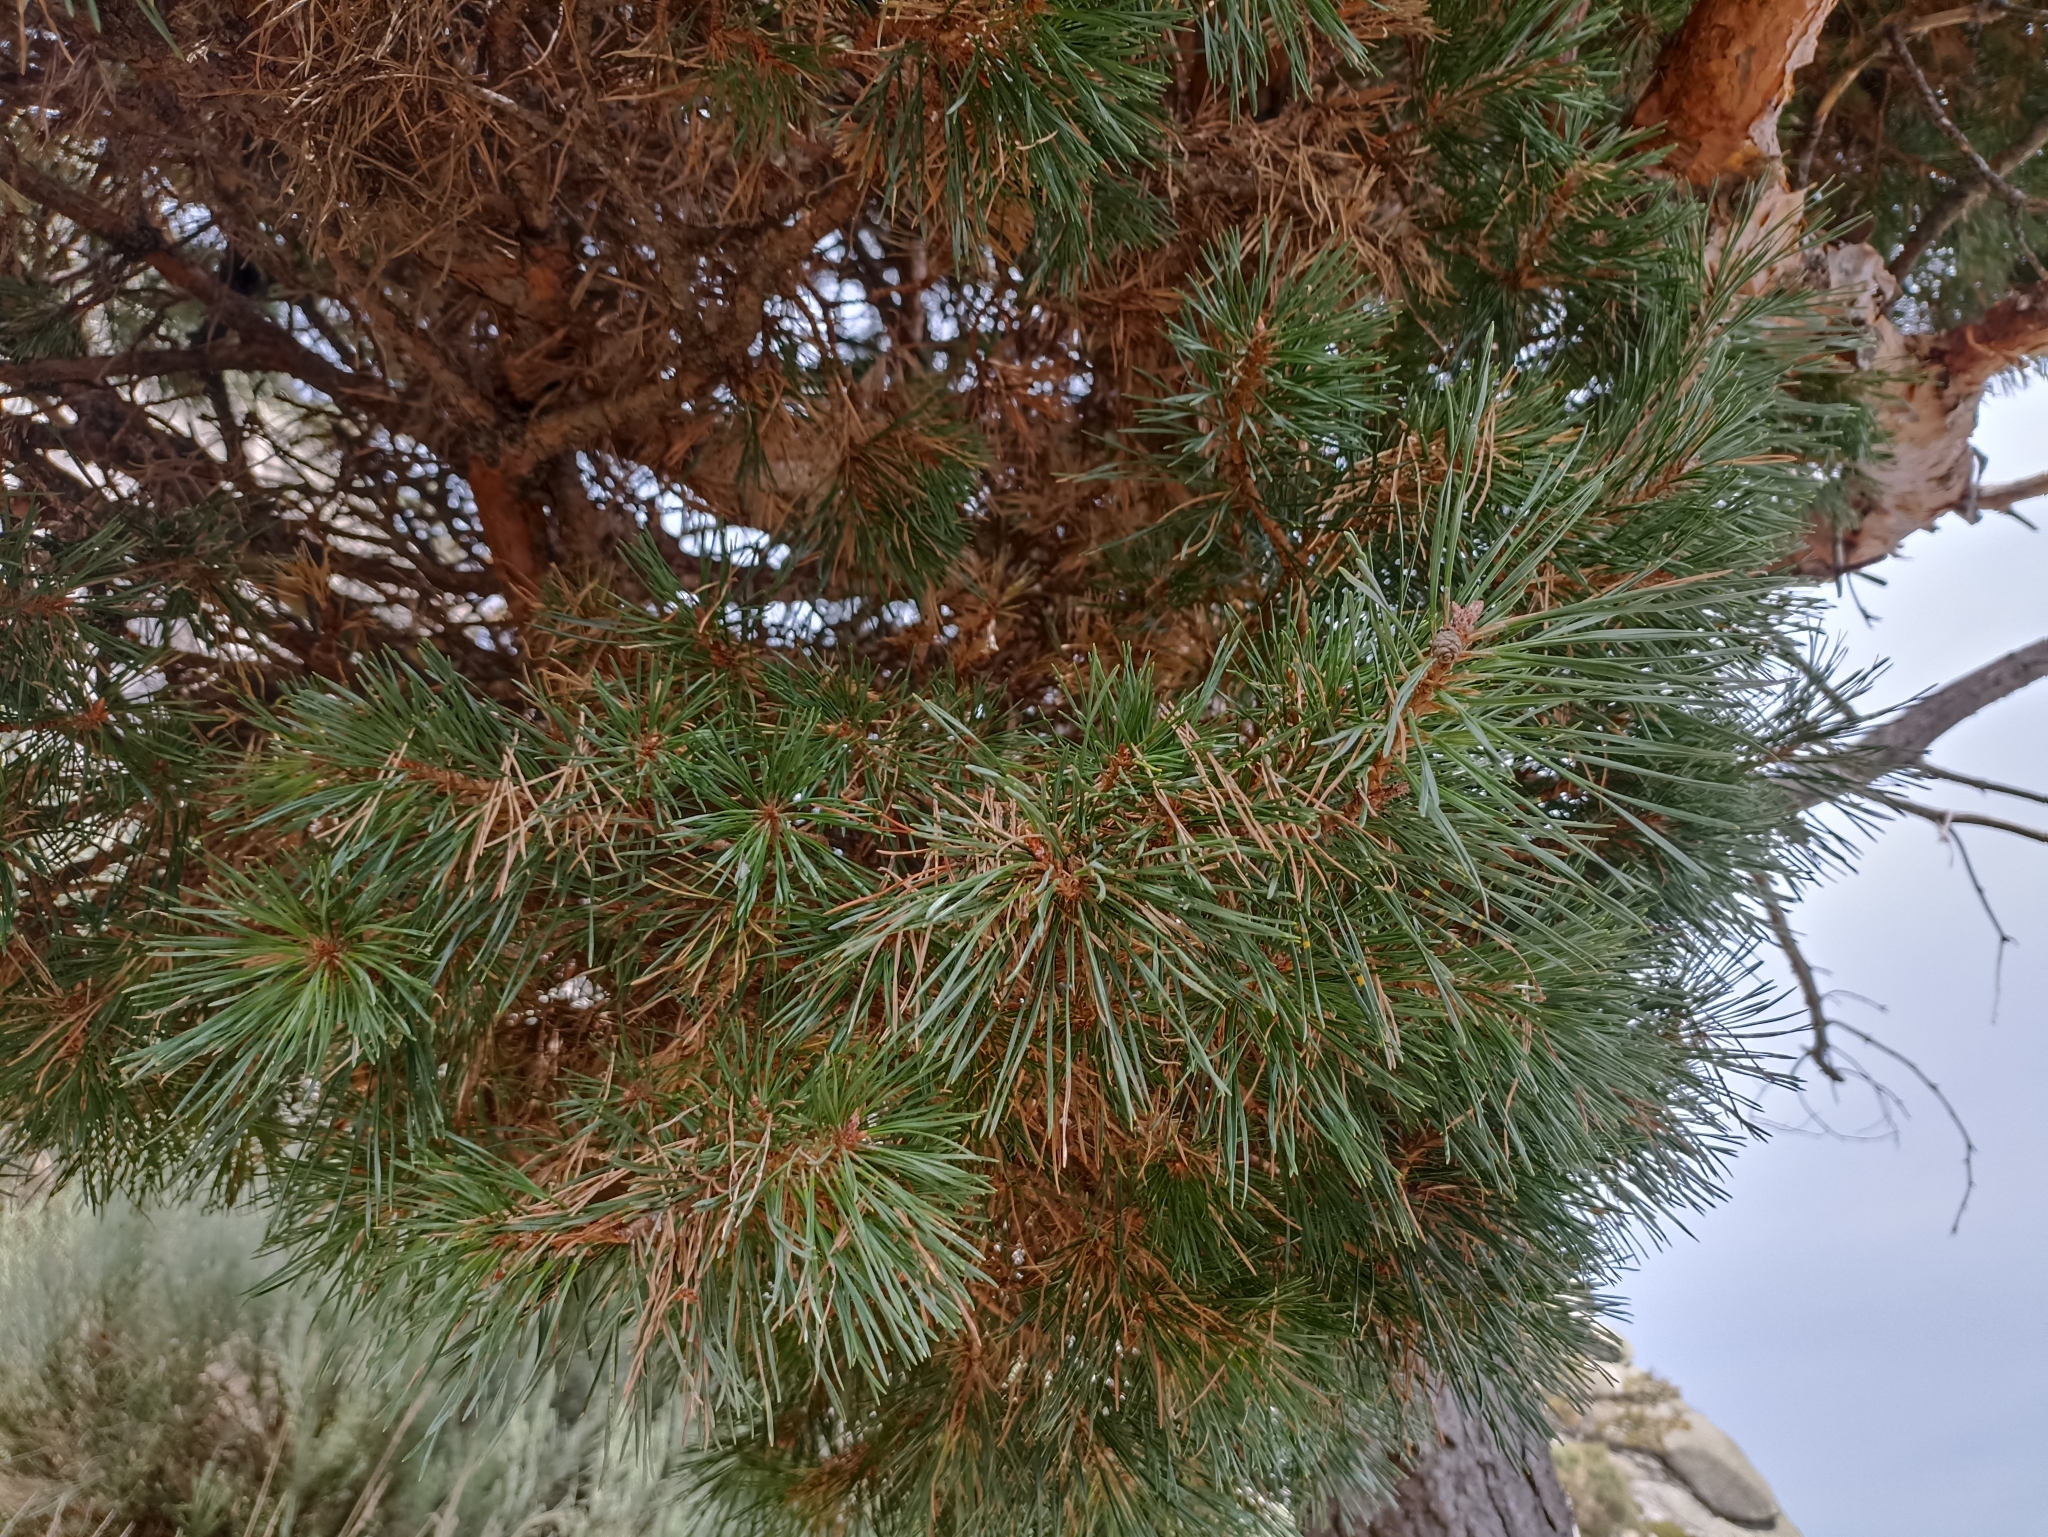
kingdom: Plantae
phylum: Tracheophyta
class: Pinopsida
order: Pinales
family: Pinaceae
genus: Pinus
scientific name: Pinus sylvestris
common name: Scots pine
